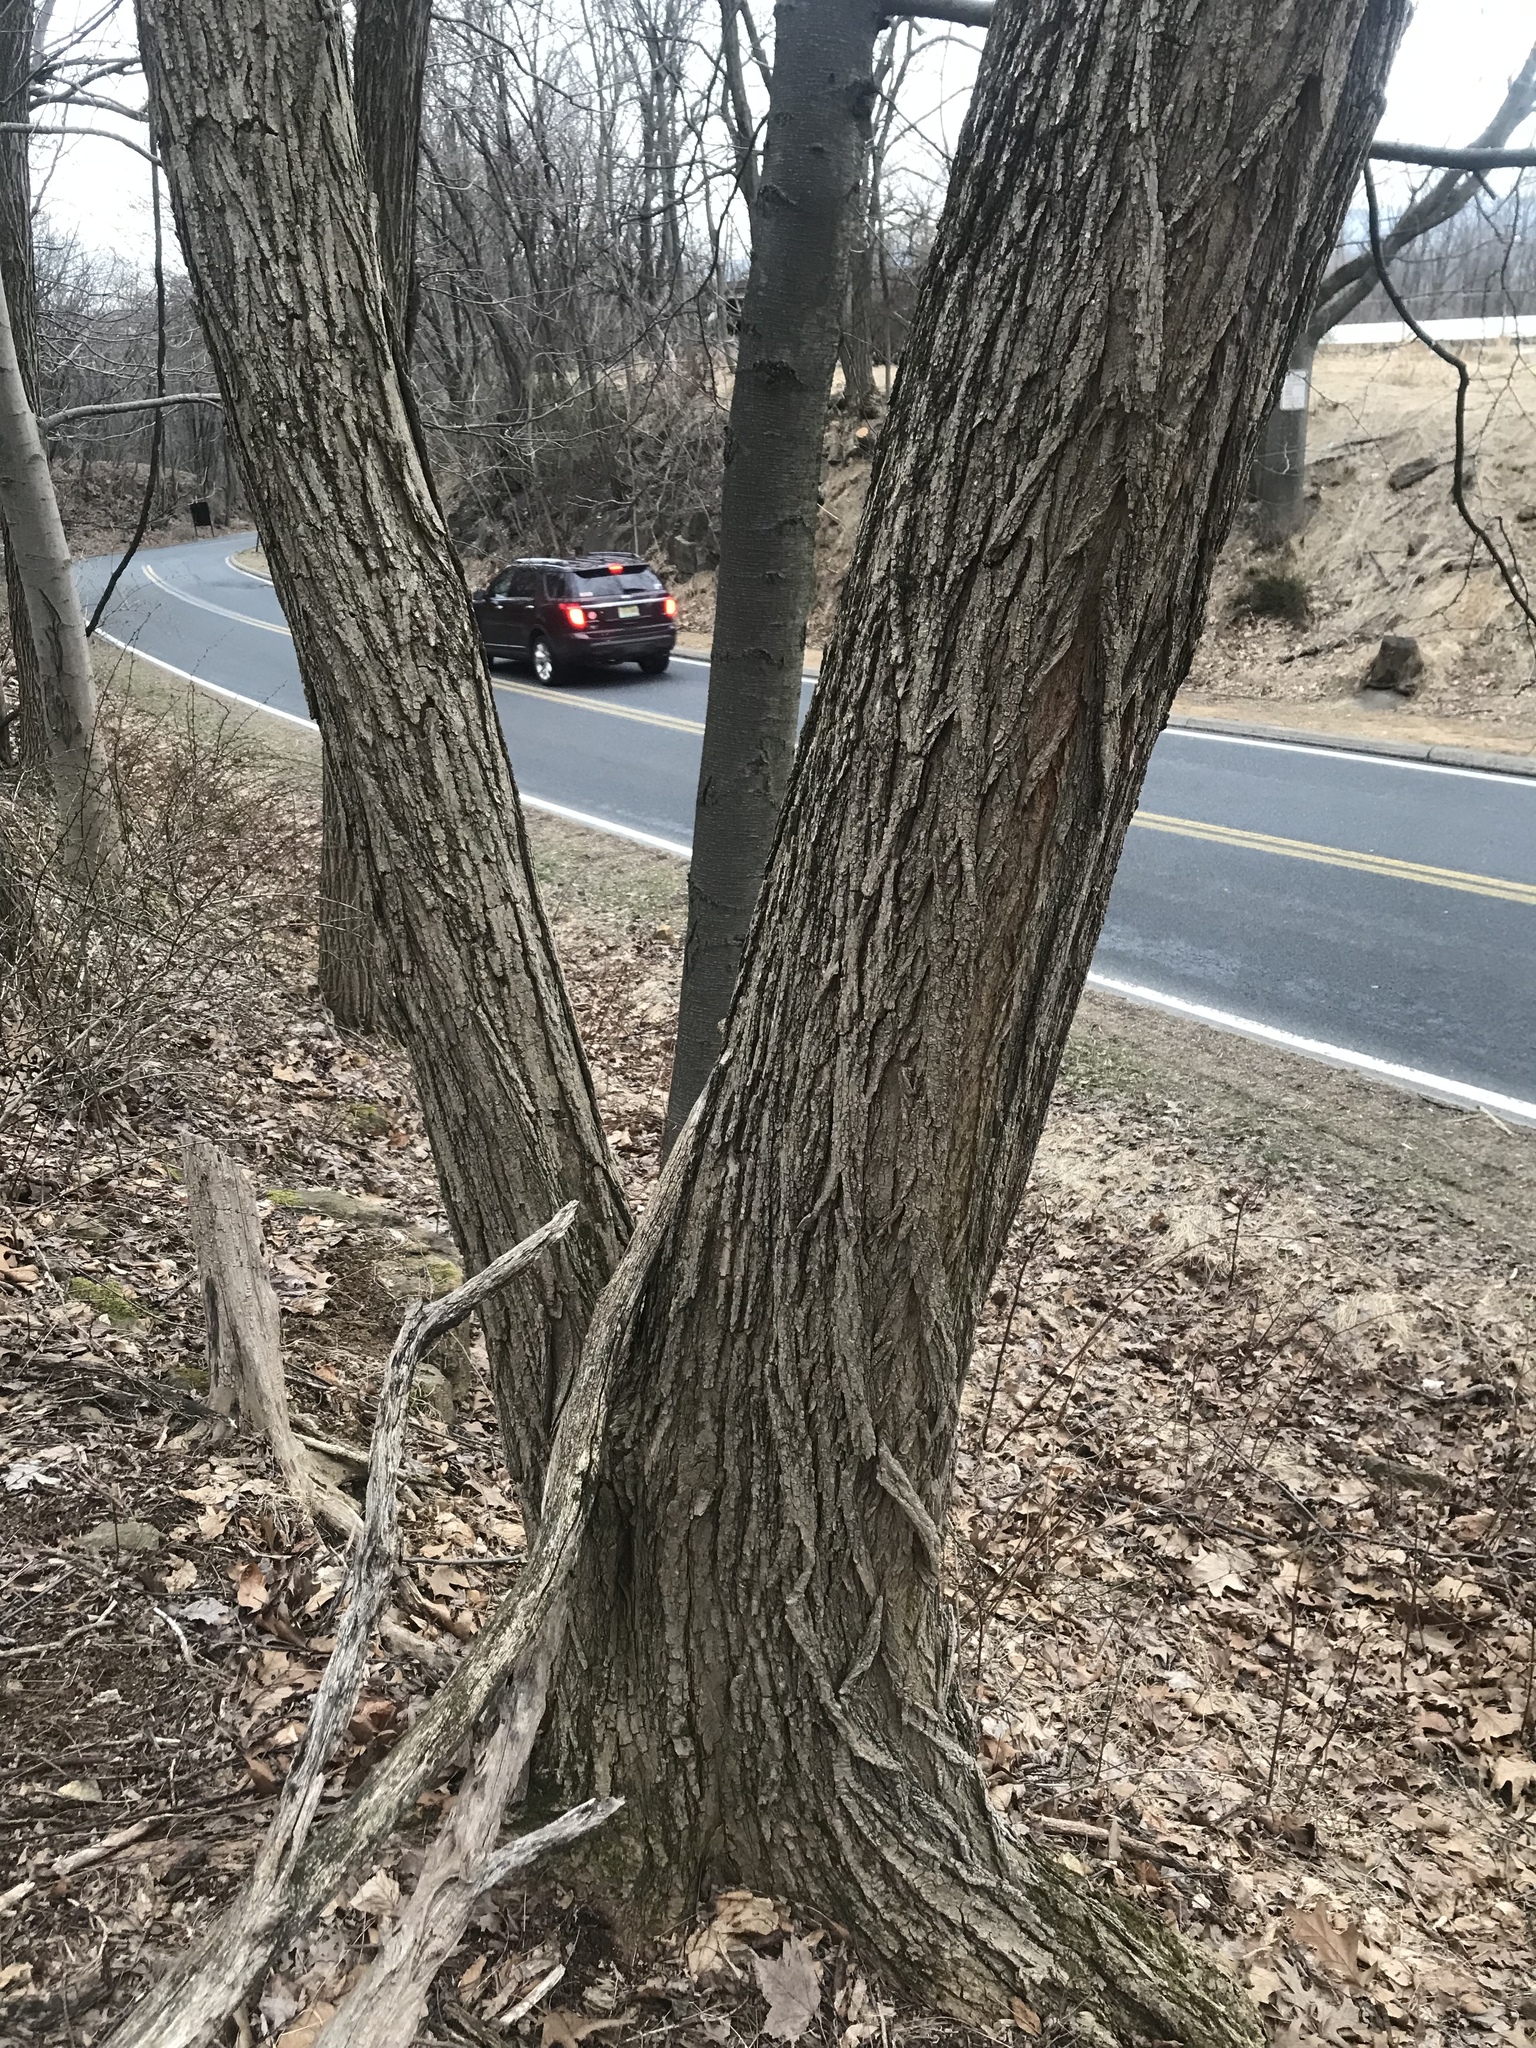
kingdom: Plantae
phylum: Tracheophyta
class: Magnoliopsida
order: Fabales
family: Fabaceae
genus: Robinia
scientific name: Robinia pseudoacacia
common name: Black locust
